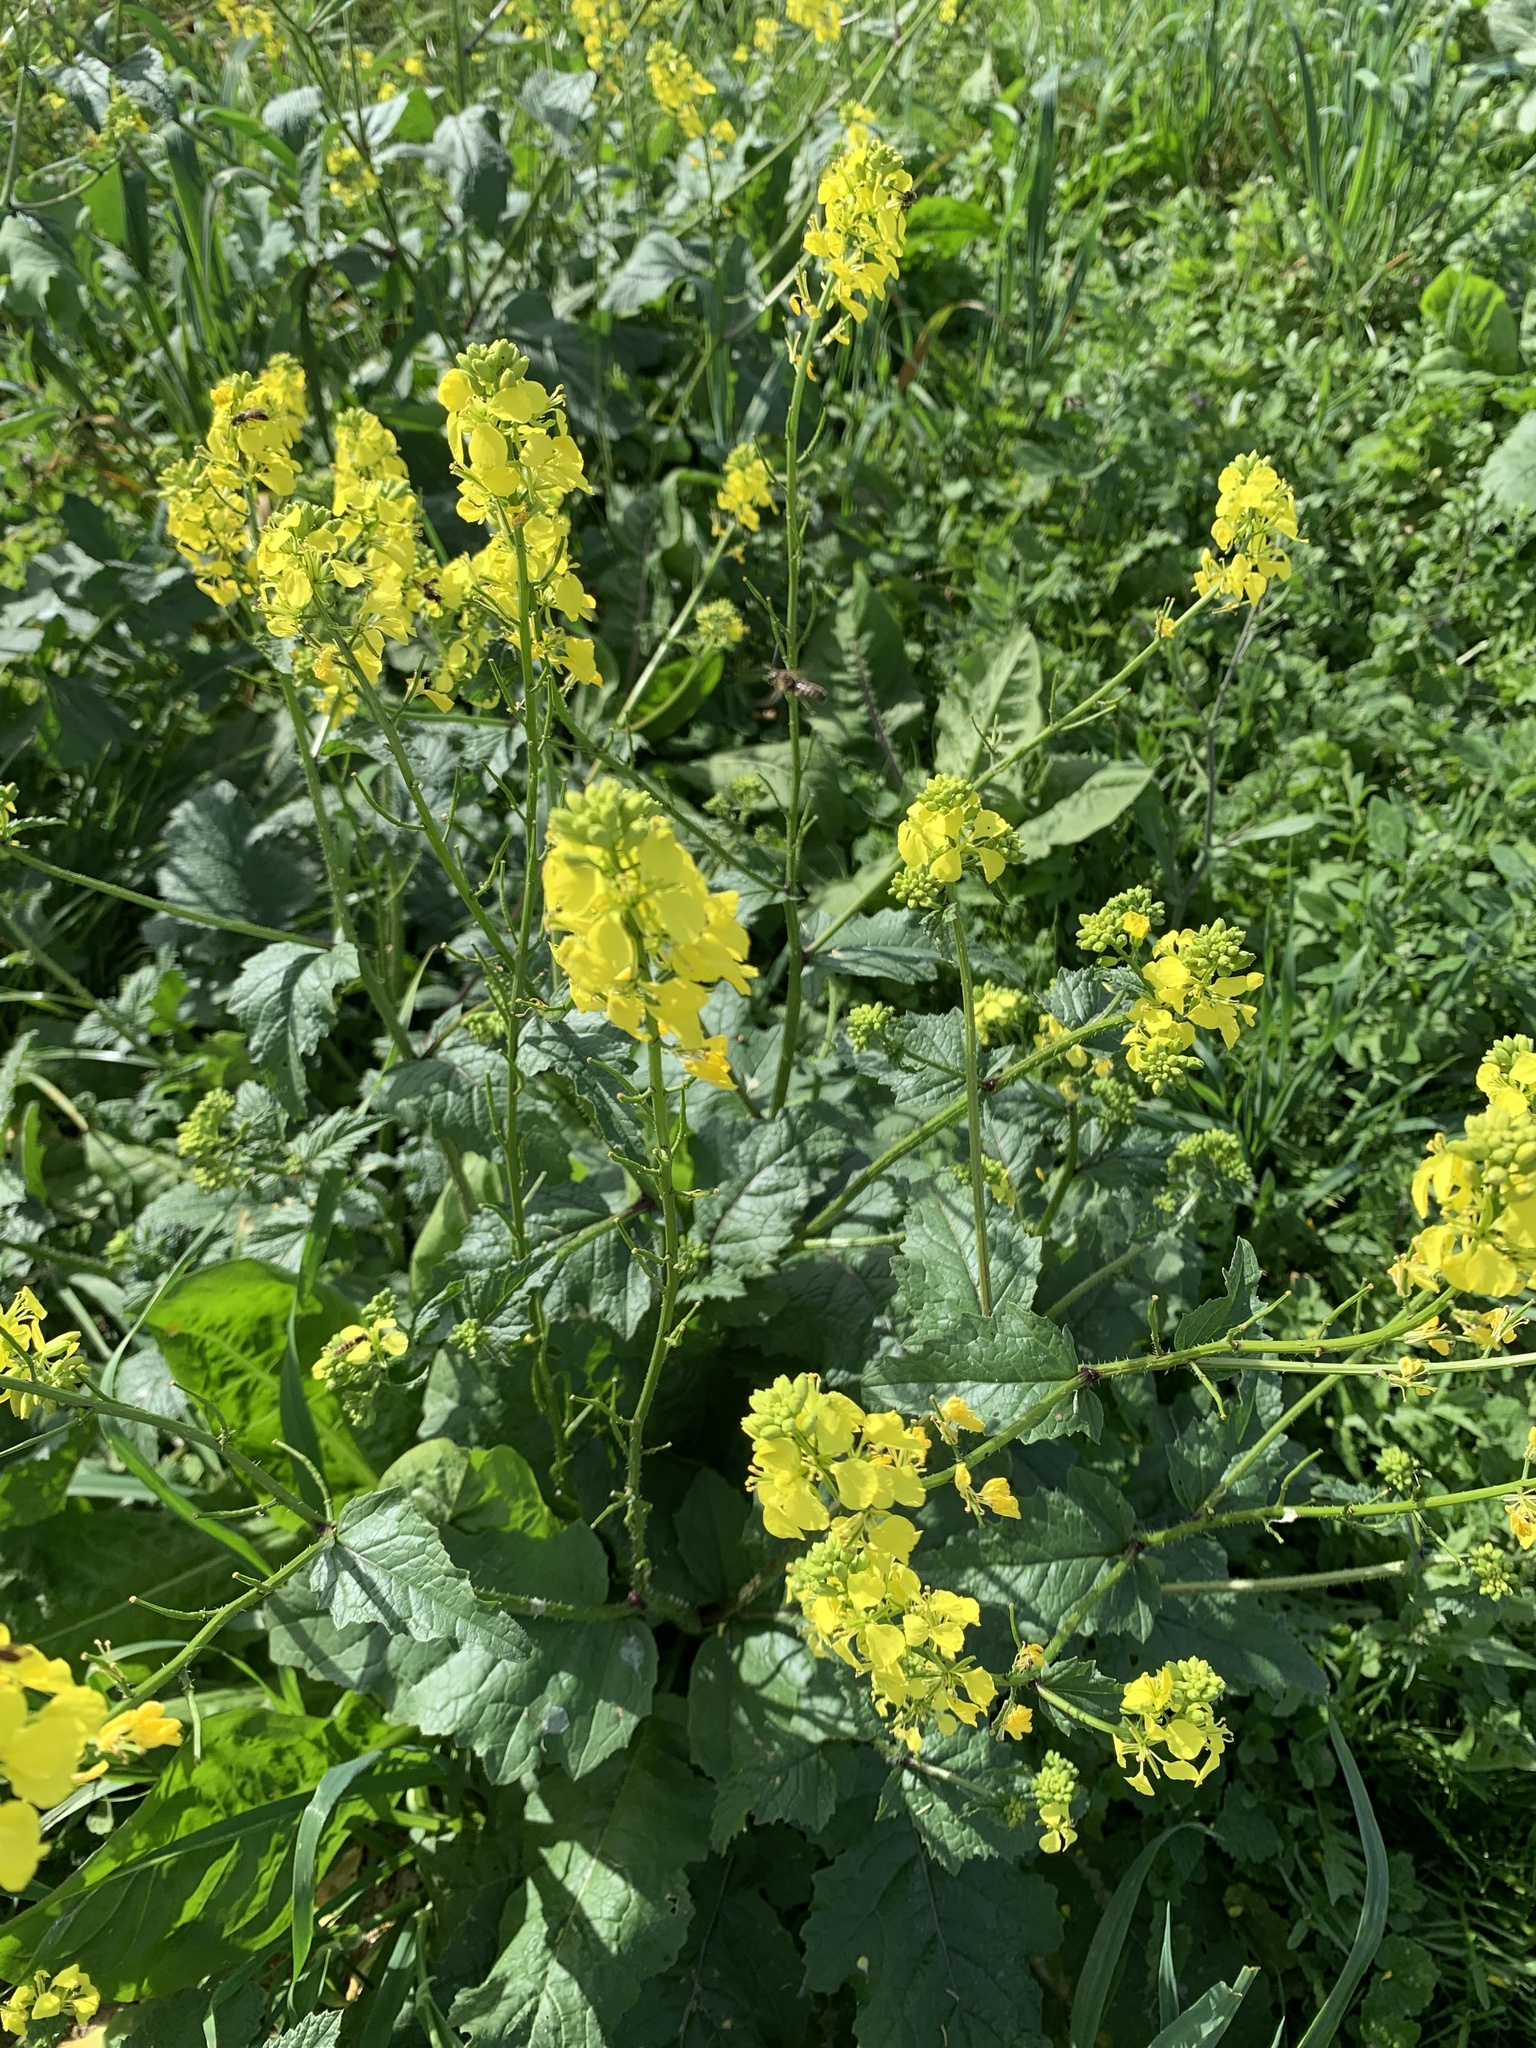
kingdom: Plantae
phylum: Tracheophyta
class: Magnoliopsida
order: Brassicales
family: Brassicaceae
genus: Sinapis
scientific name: Sinapis arvensis
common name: Charlock
